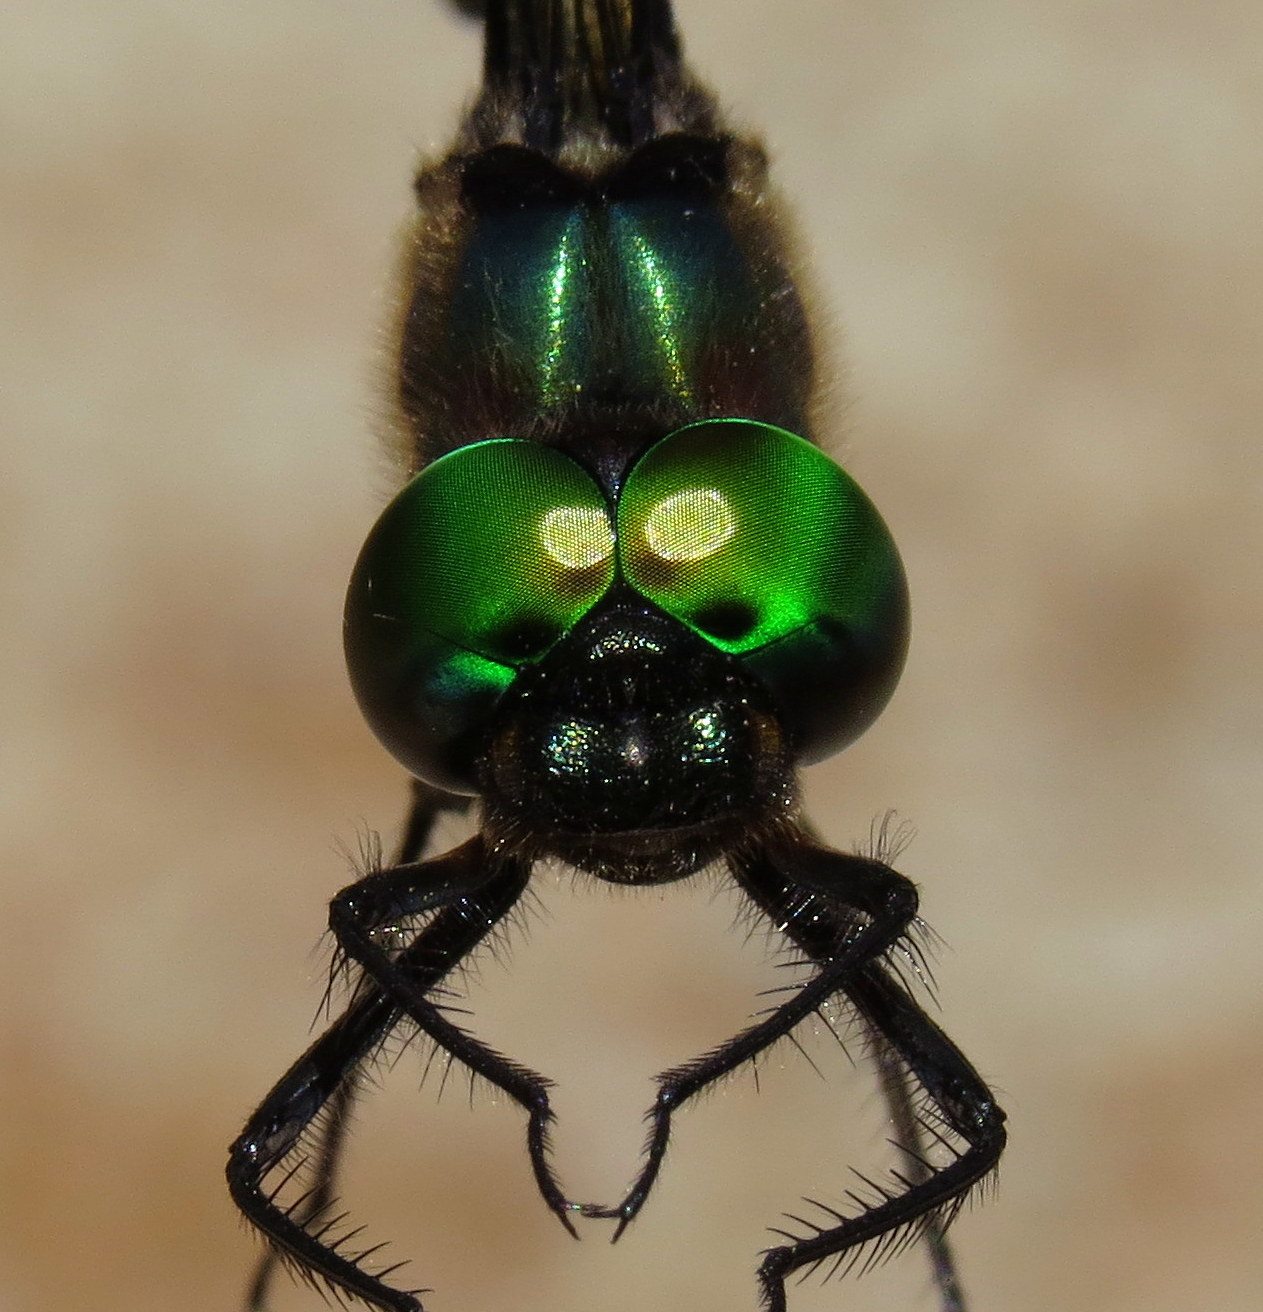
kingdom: Animalia
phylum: Arthropoda
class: Insecta
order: Odonata
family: Corduliidae
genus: Somatochlora
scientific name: Somatochlora williamsoni
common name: Williamson's emerald
